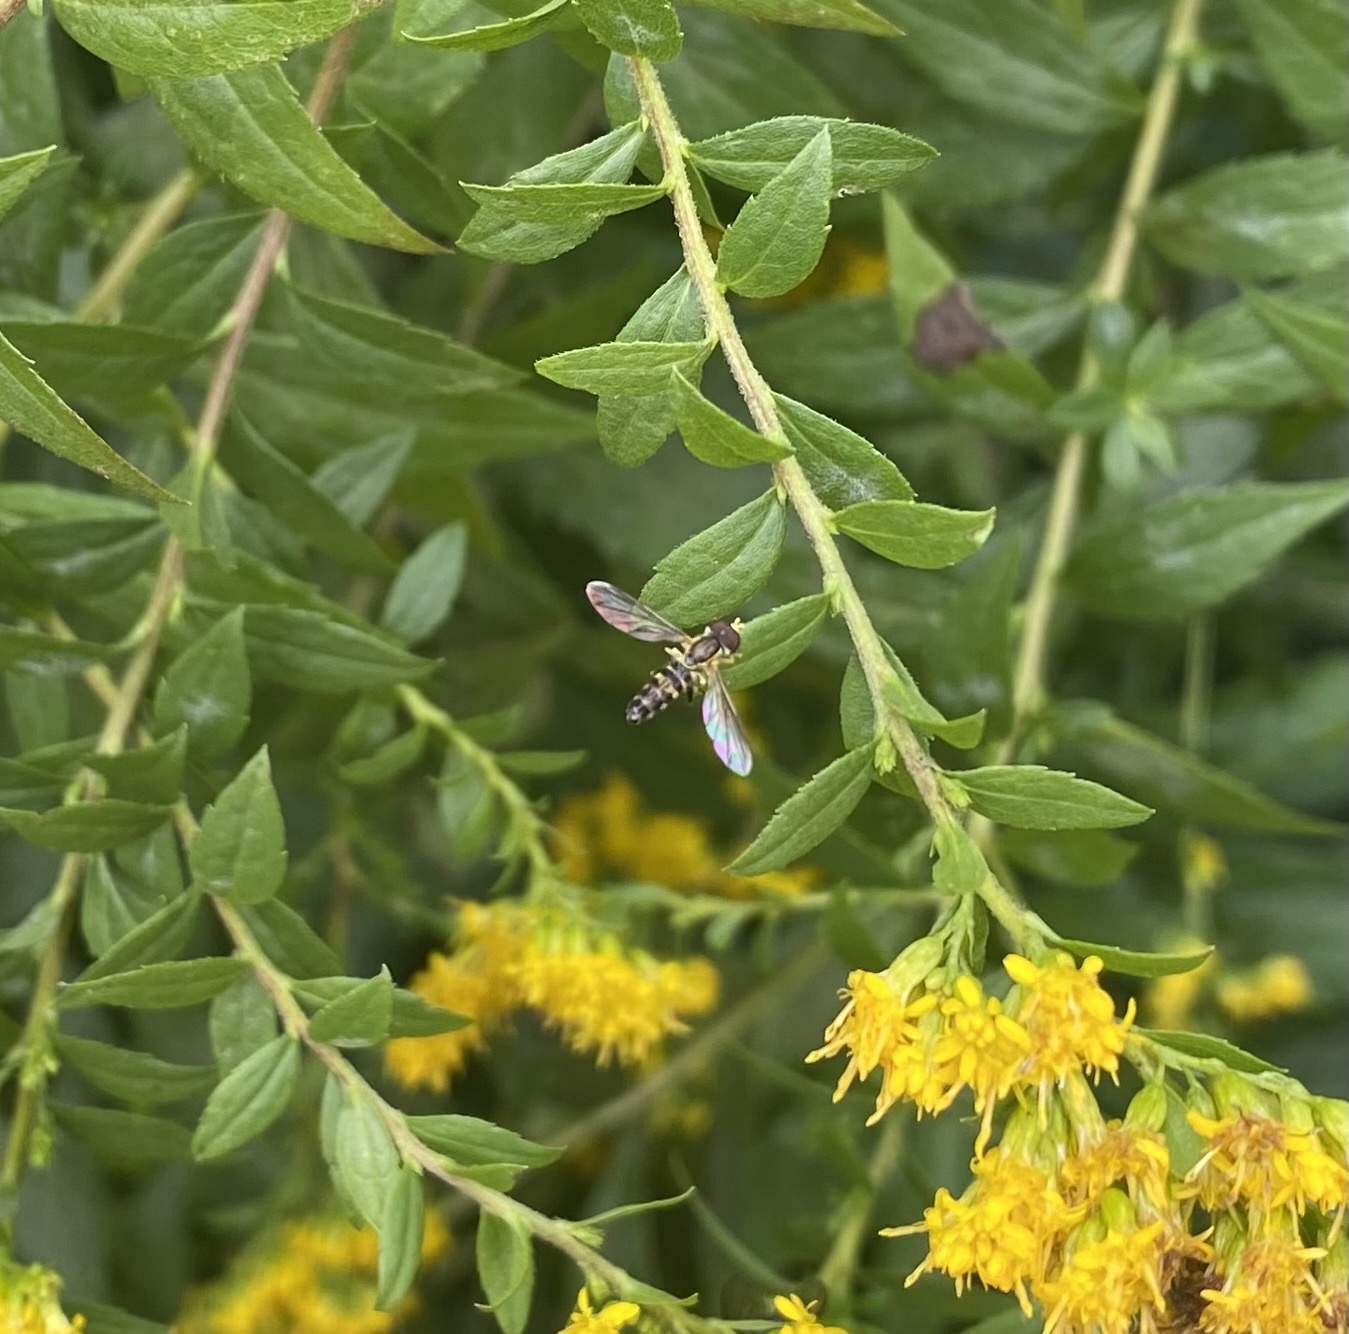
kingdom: Animalia
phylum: Arthropoda
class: Insecta
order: Diptera
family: Syrphidae
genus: Toxomerus
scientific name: Toxomerus geminatus
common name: Eastern calligrapher
